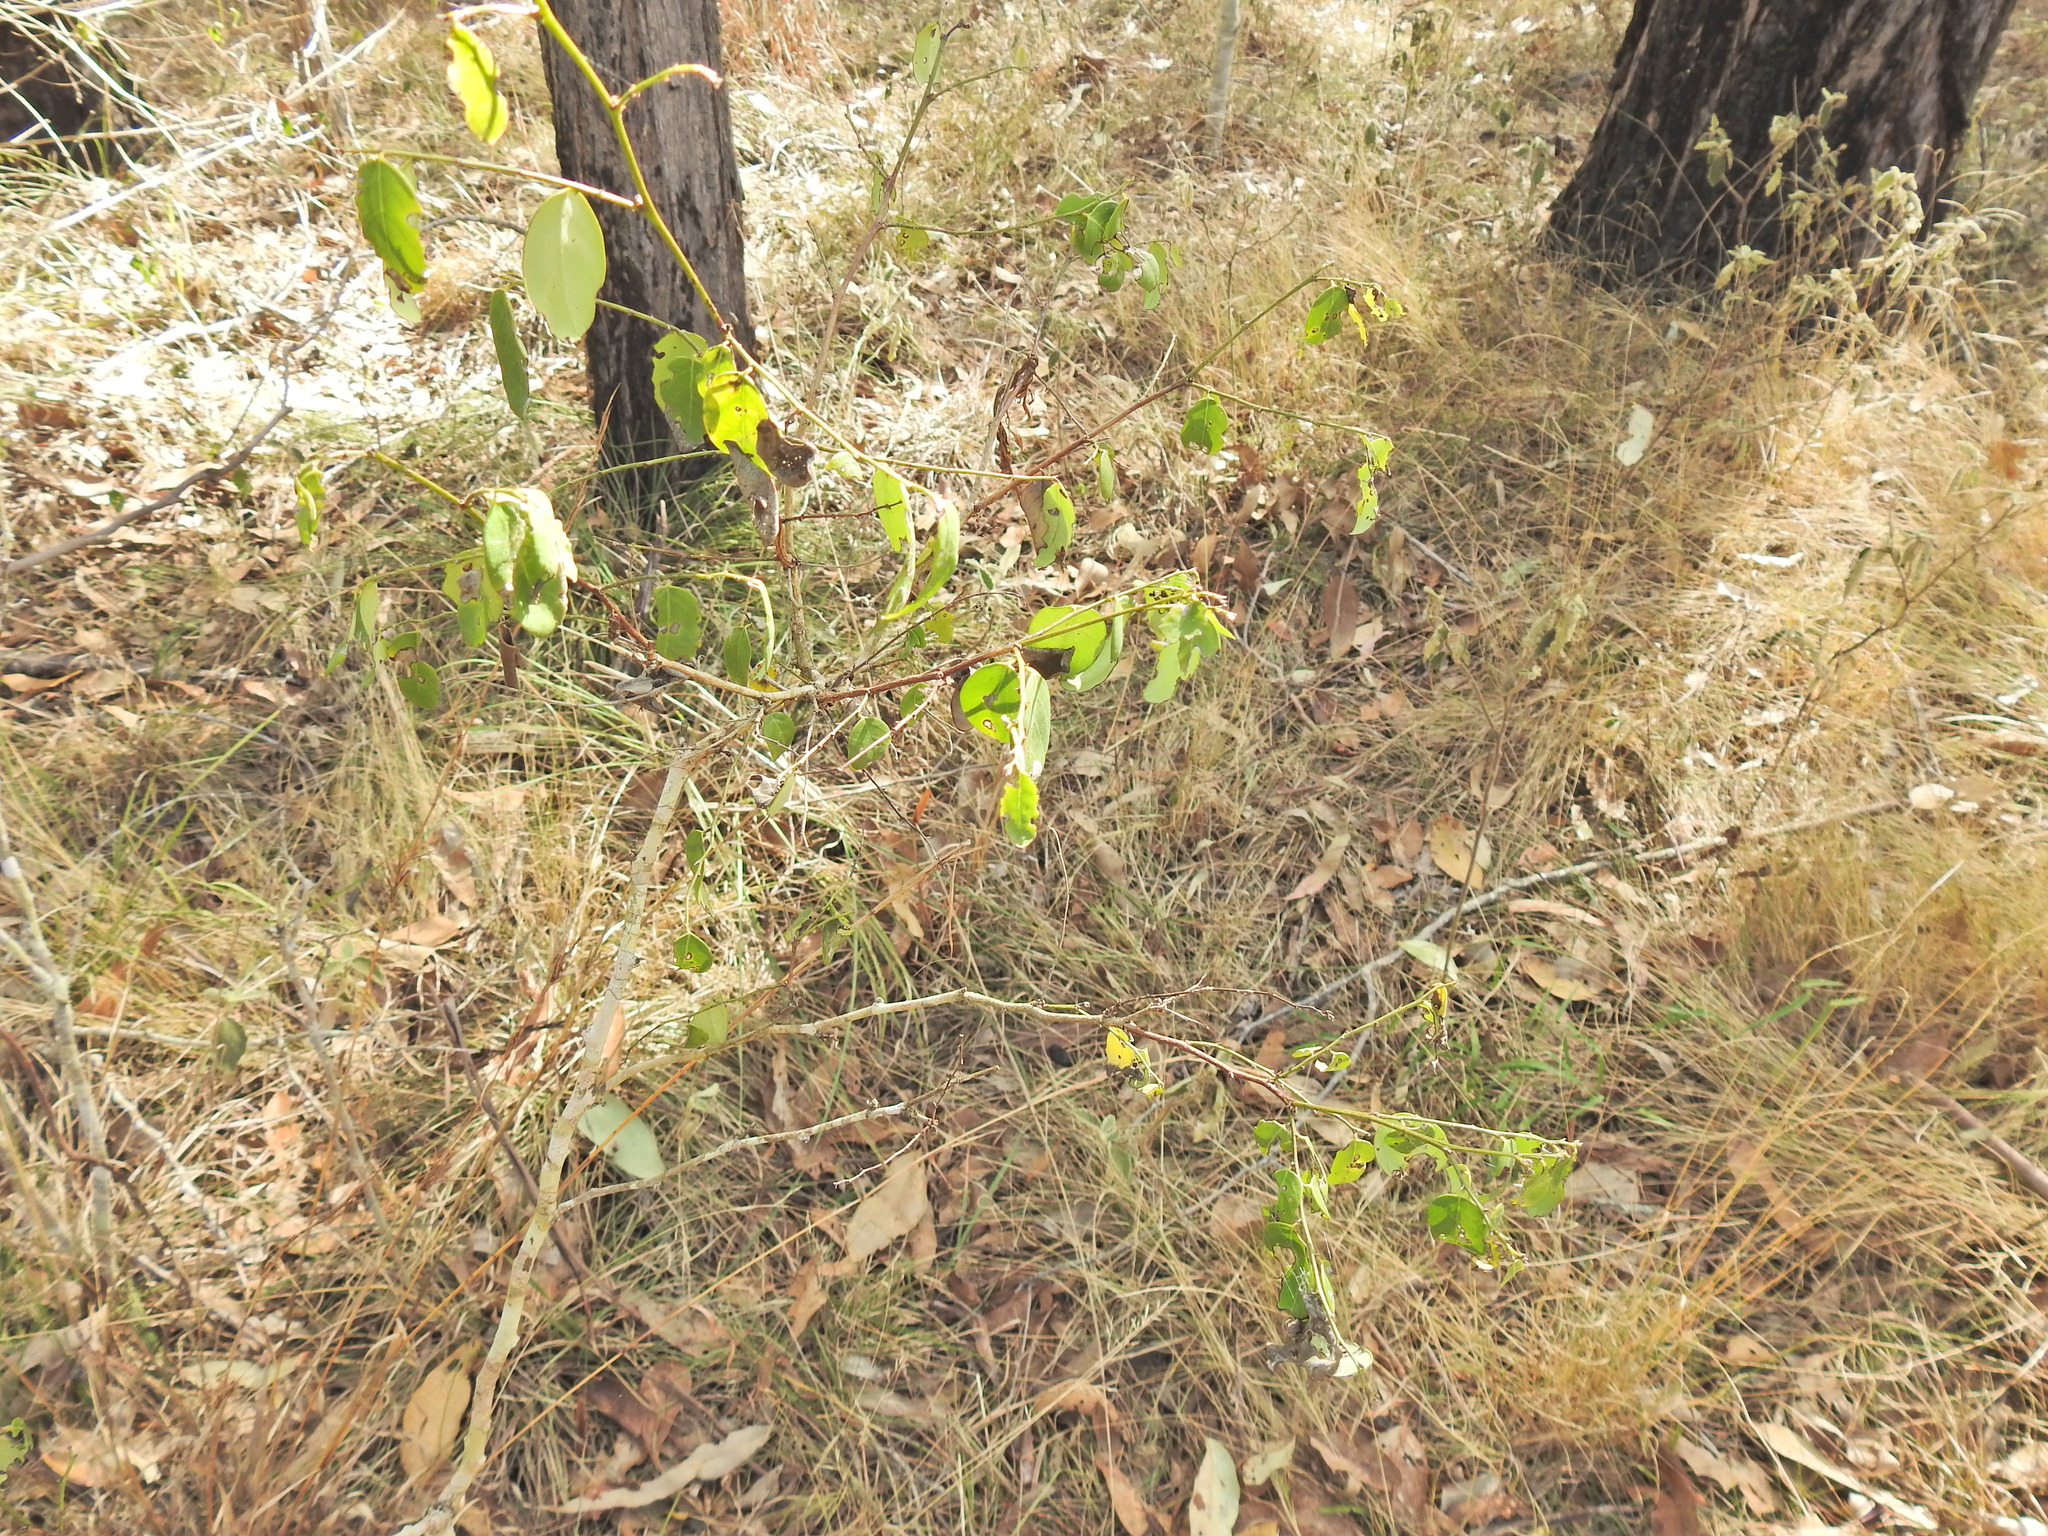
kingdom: Plantae
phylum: Tracheophyta
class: Magnoliopsida
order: Malpighiales
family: Phyllanthaceae
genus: Breynia
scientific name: Breynia oblongifolia
